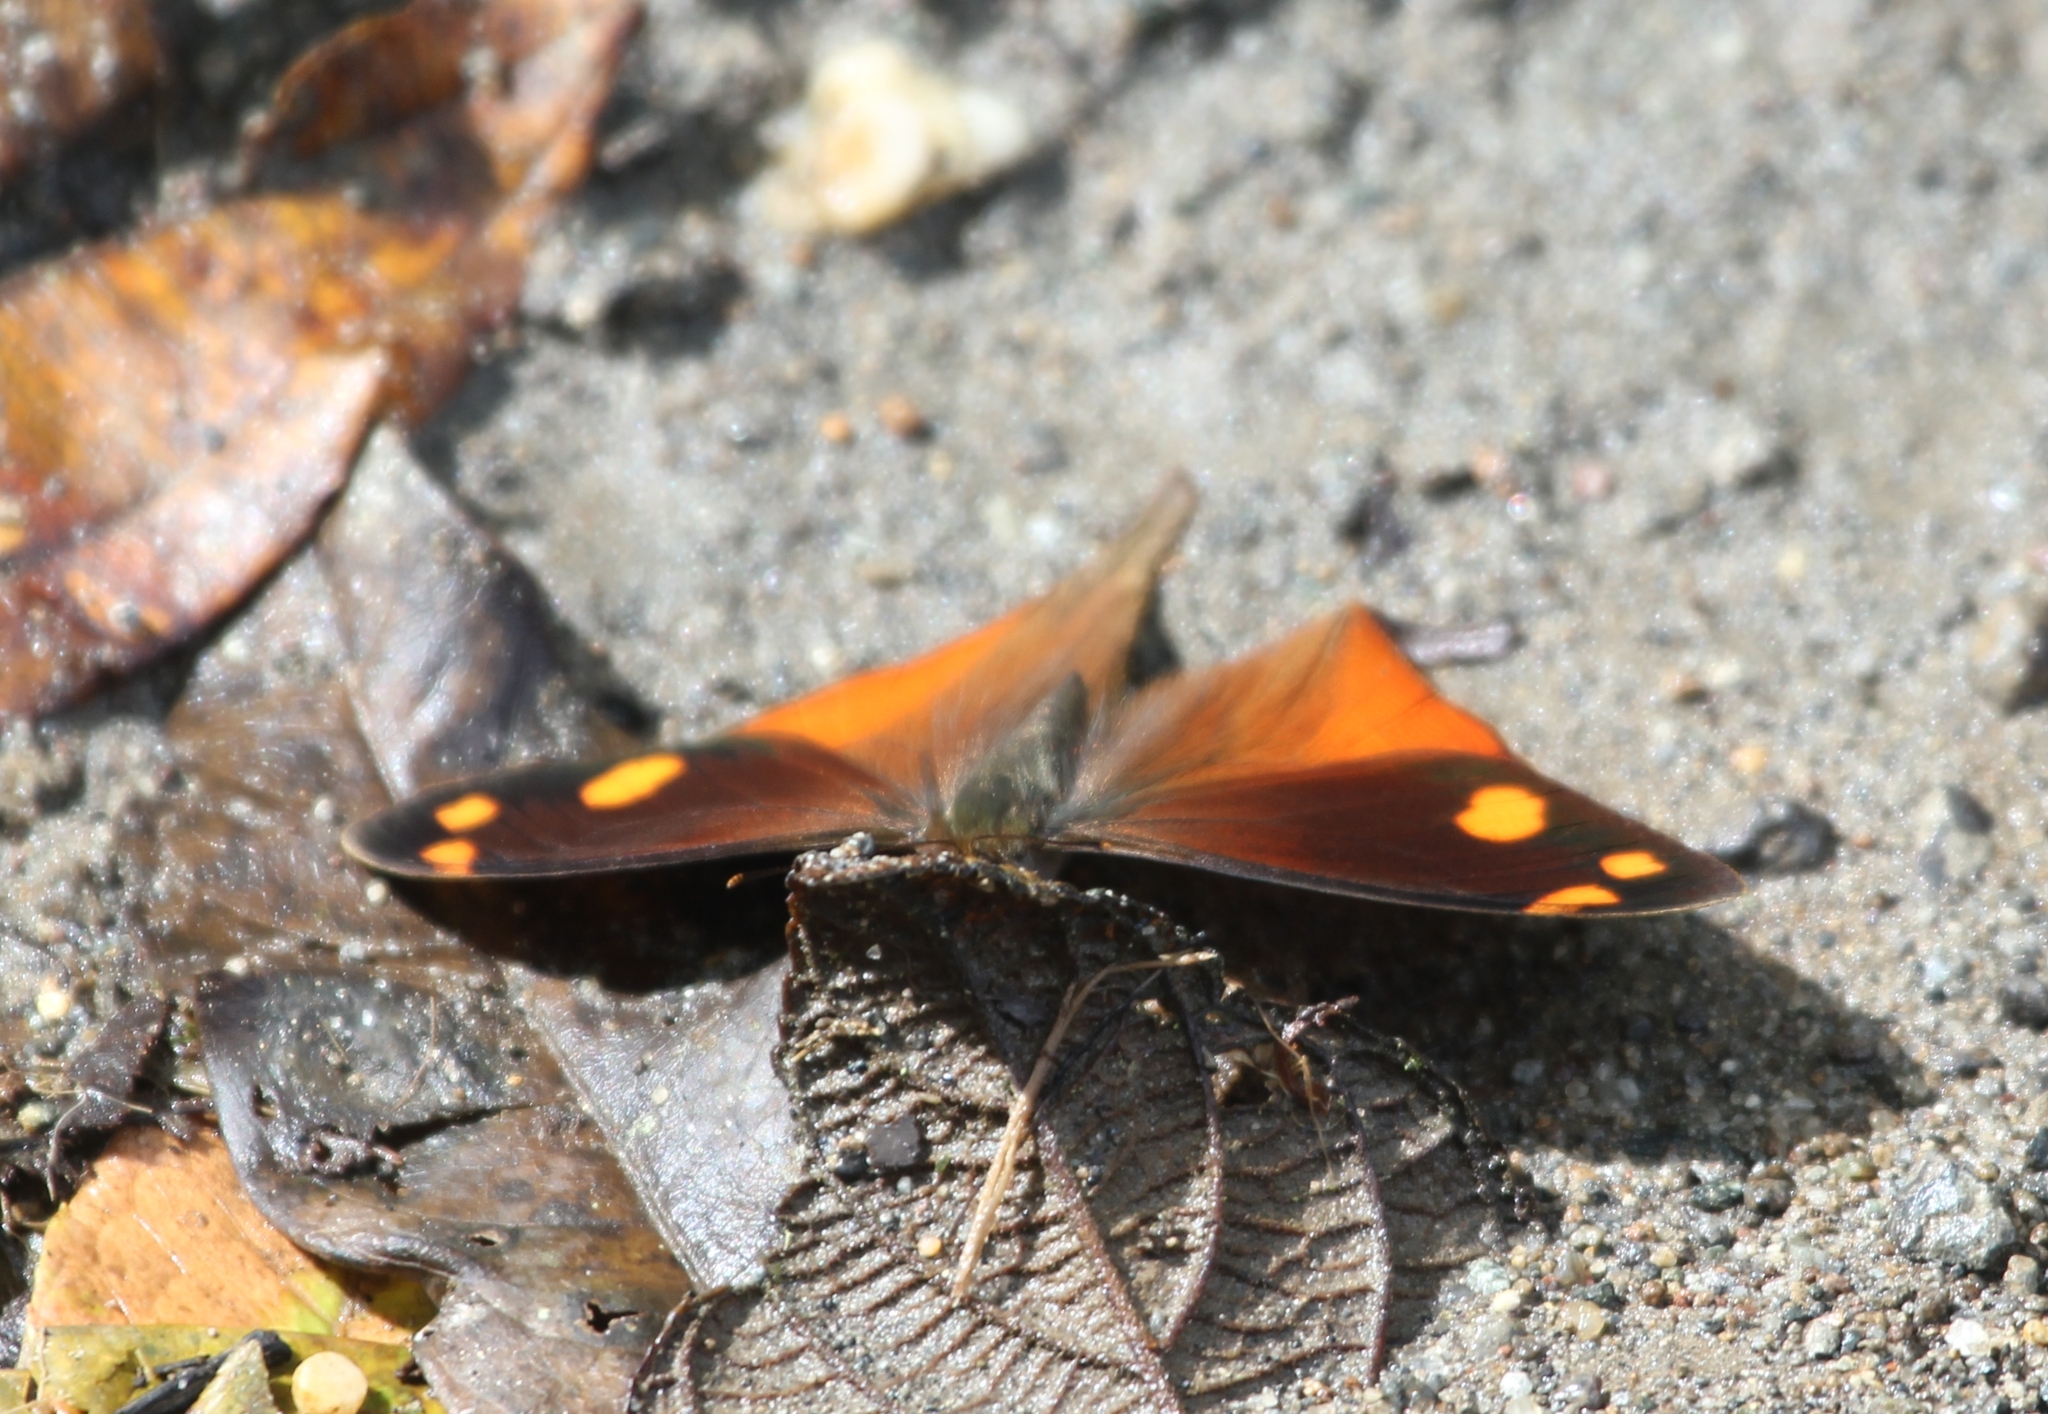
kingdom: Animalia
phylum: Arthropoda
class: Insecta
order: Lepidoptera
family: Nymphalidae
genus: Corades
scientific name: Corades chelonis
